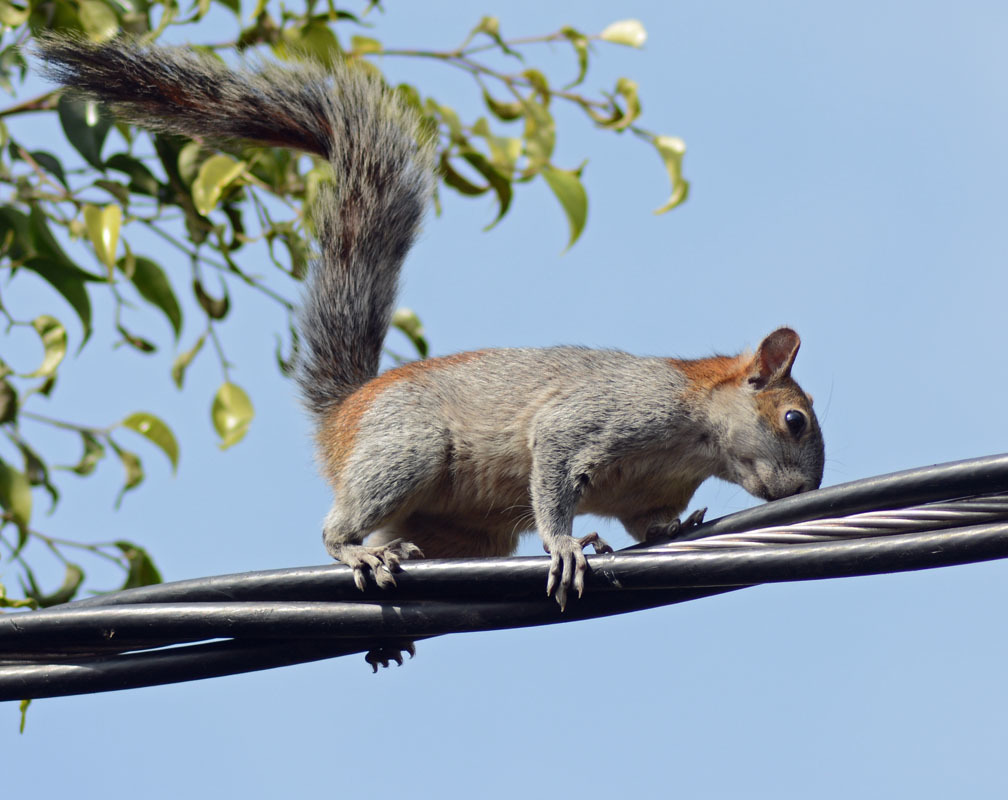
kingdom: Animalia
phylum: Chordata
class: Mammalia
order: Rodentia
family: Sciuridae
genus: Sciurus
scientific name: Sciurus aureogaster
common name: Red-bellied squirrel
